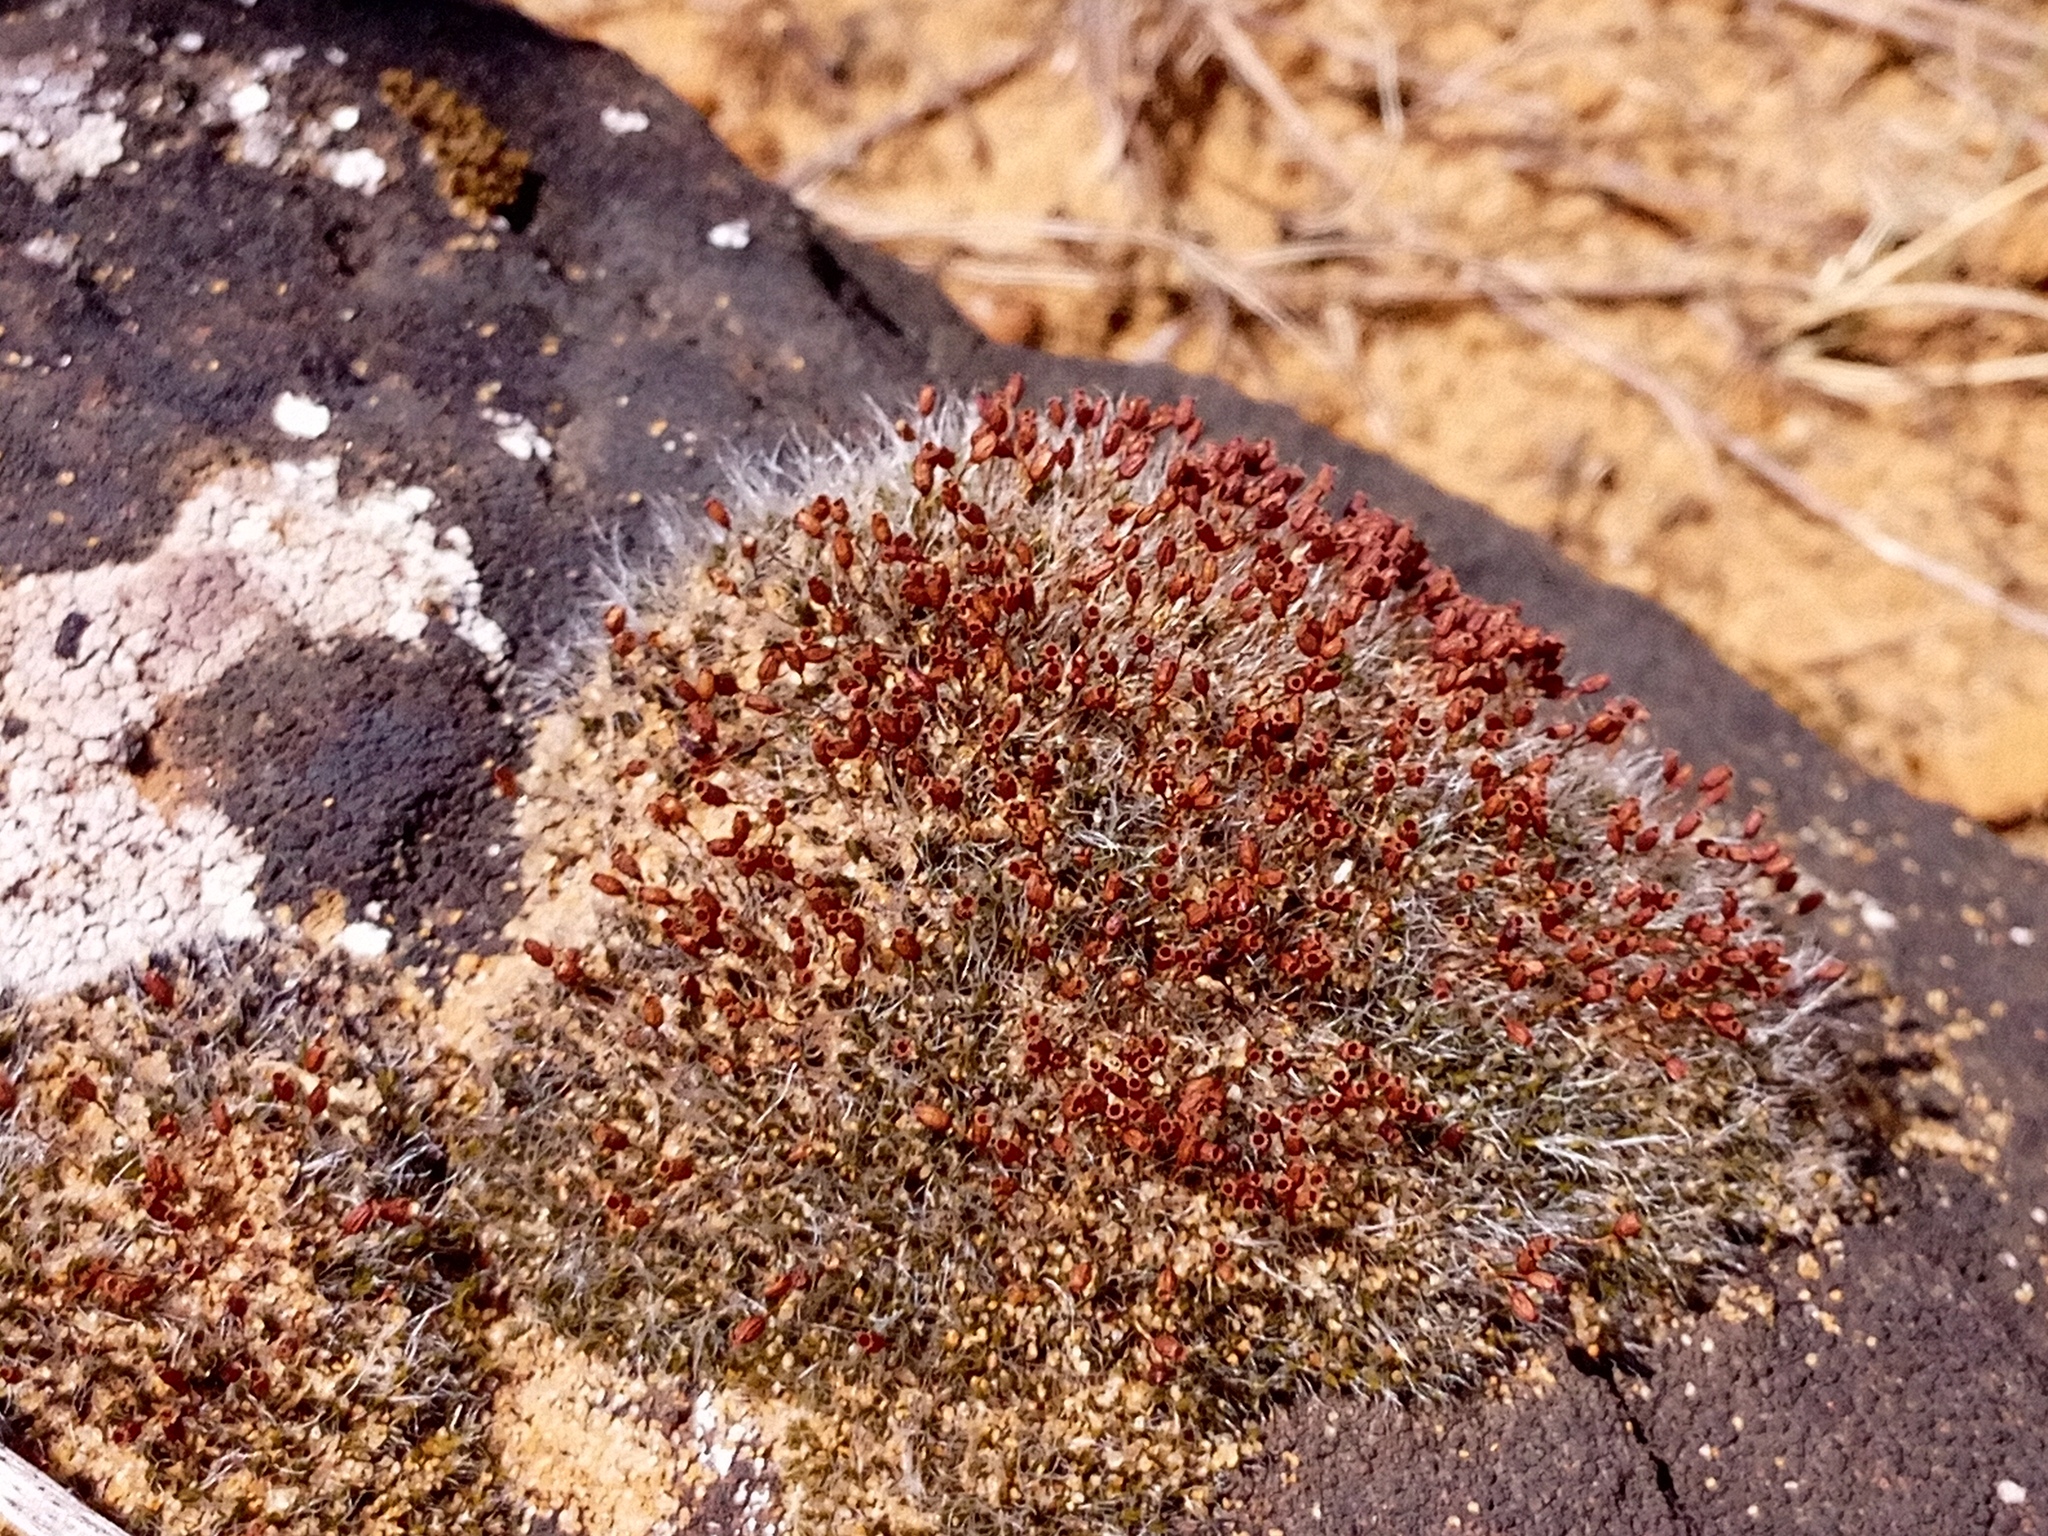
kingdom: Plantae
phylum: Bryophyta
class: Bryopsida
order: Grimmiales
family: Grimmiaceae
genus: Grimmia
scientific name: Grimmia pulvinata
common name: Grey-cushioned grimmia
